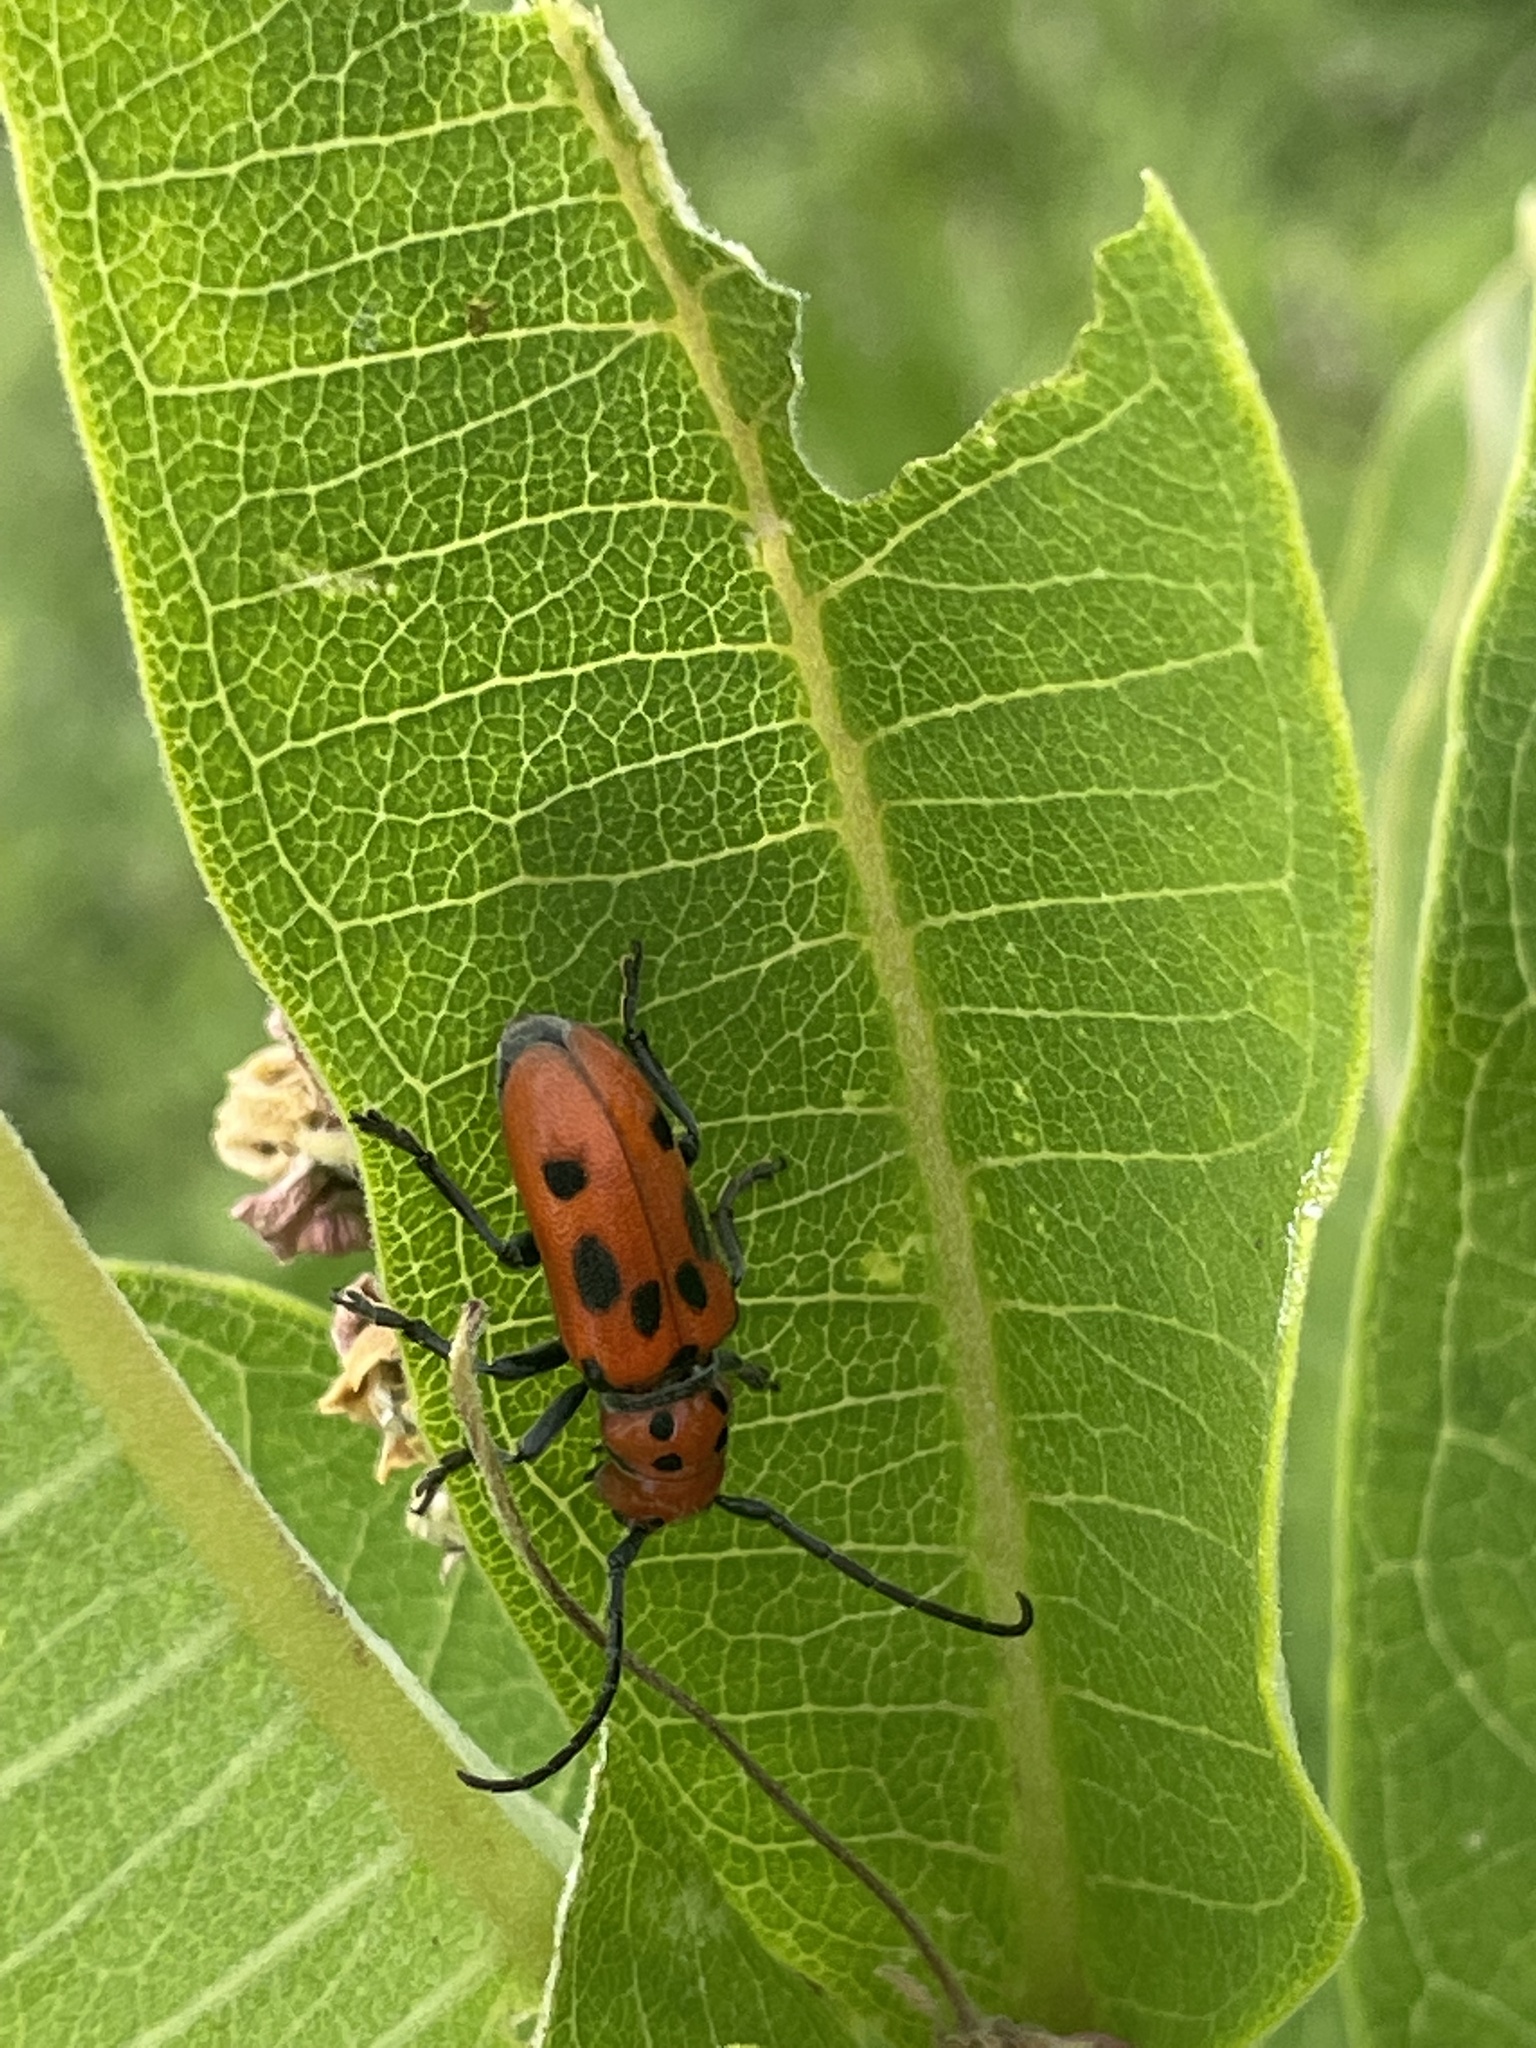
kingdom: Animalia
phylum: Arthropoda
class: Insecta
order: Coleoptera
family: Cerambycidae
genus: Tetraopes
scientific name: Tetraopes tetrophthalmus
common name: Red milkweed beetle
